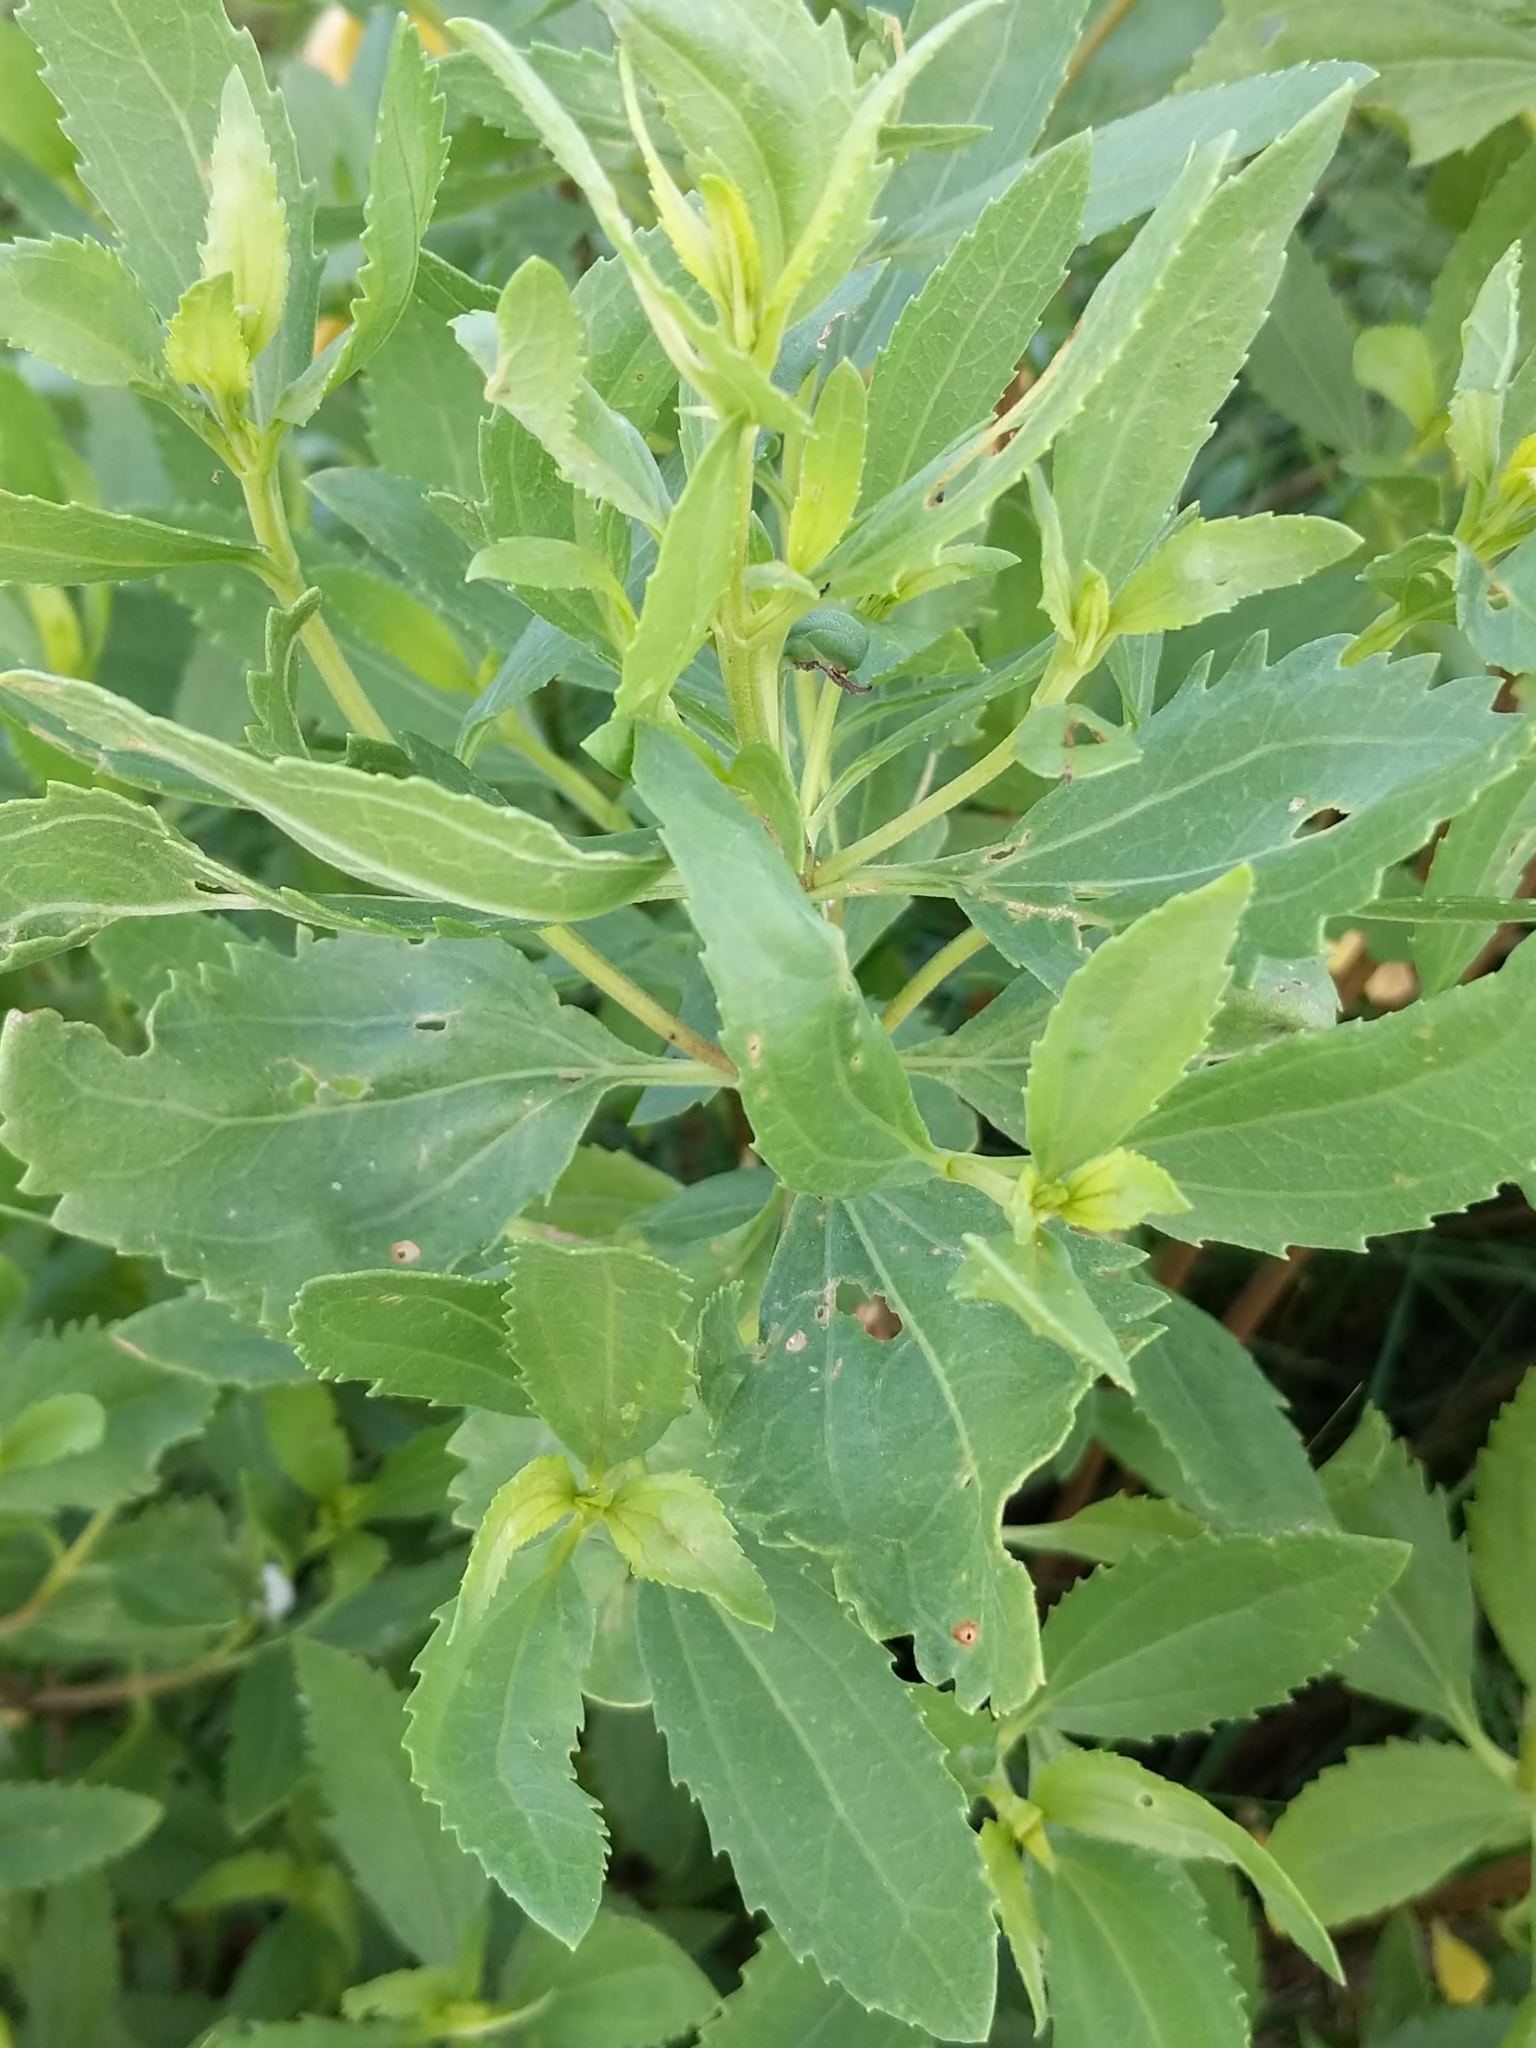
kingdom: Plantae
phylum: Tracheophyta
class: Magnoliopsida
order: Asterales
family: Asteraceae
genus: Iva
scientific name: Iva frutescens
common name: Big-leaved marsh-elder
